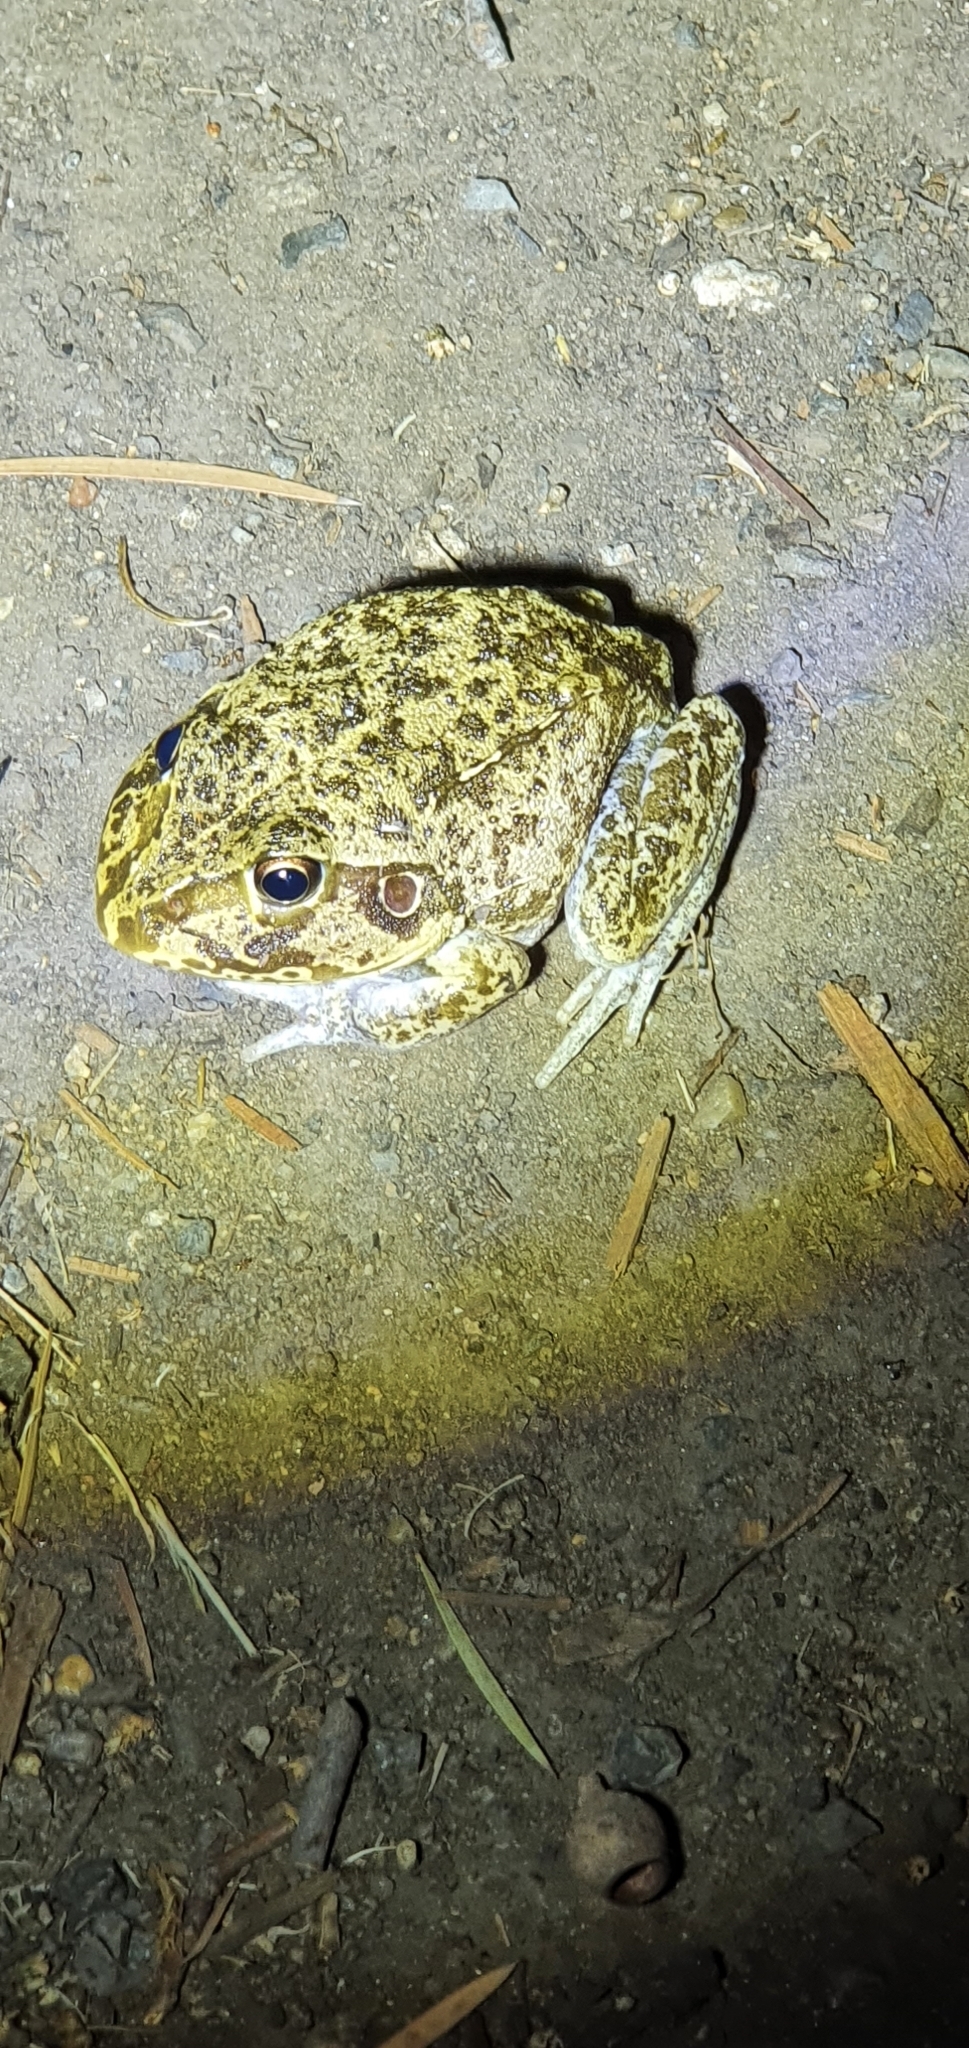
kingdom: Animalia
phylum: Chordata
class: Amphibia
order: Anura
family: Pelodryadidae
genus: Ranoidea
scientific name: Ranoidea novaehollandiae
